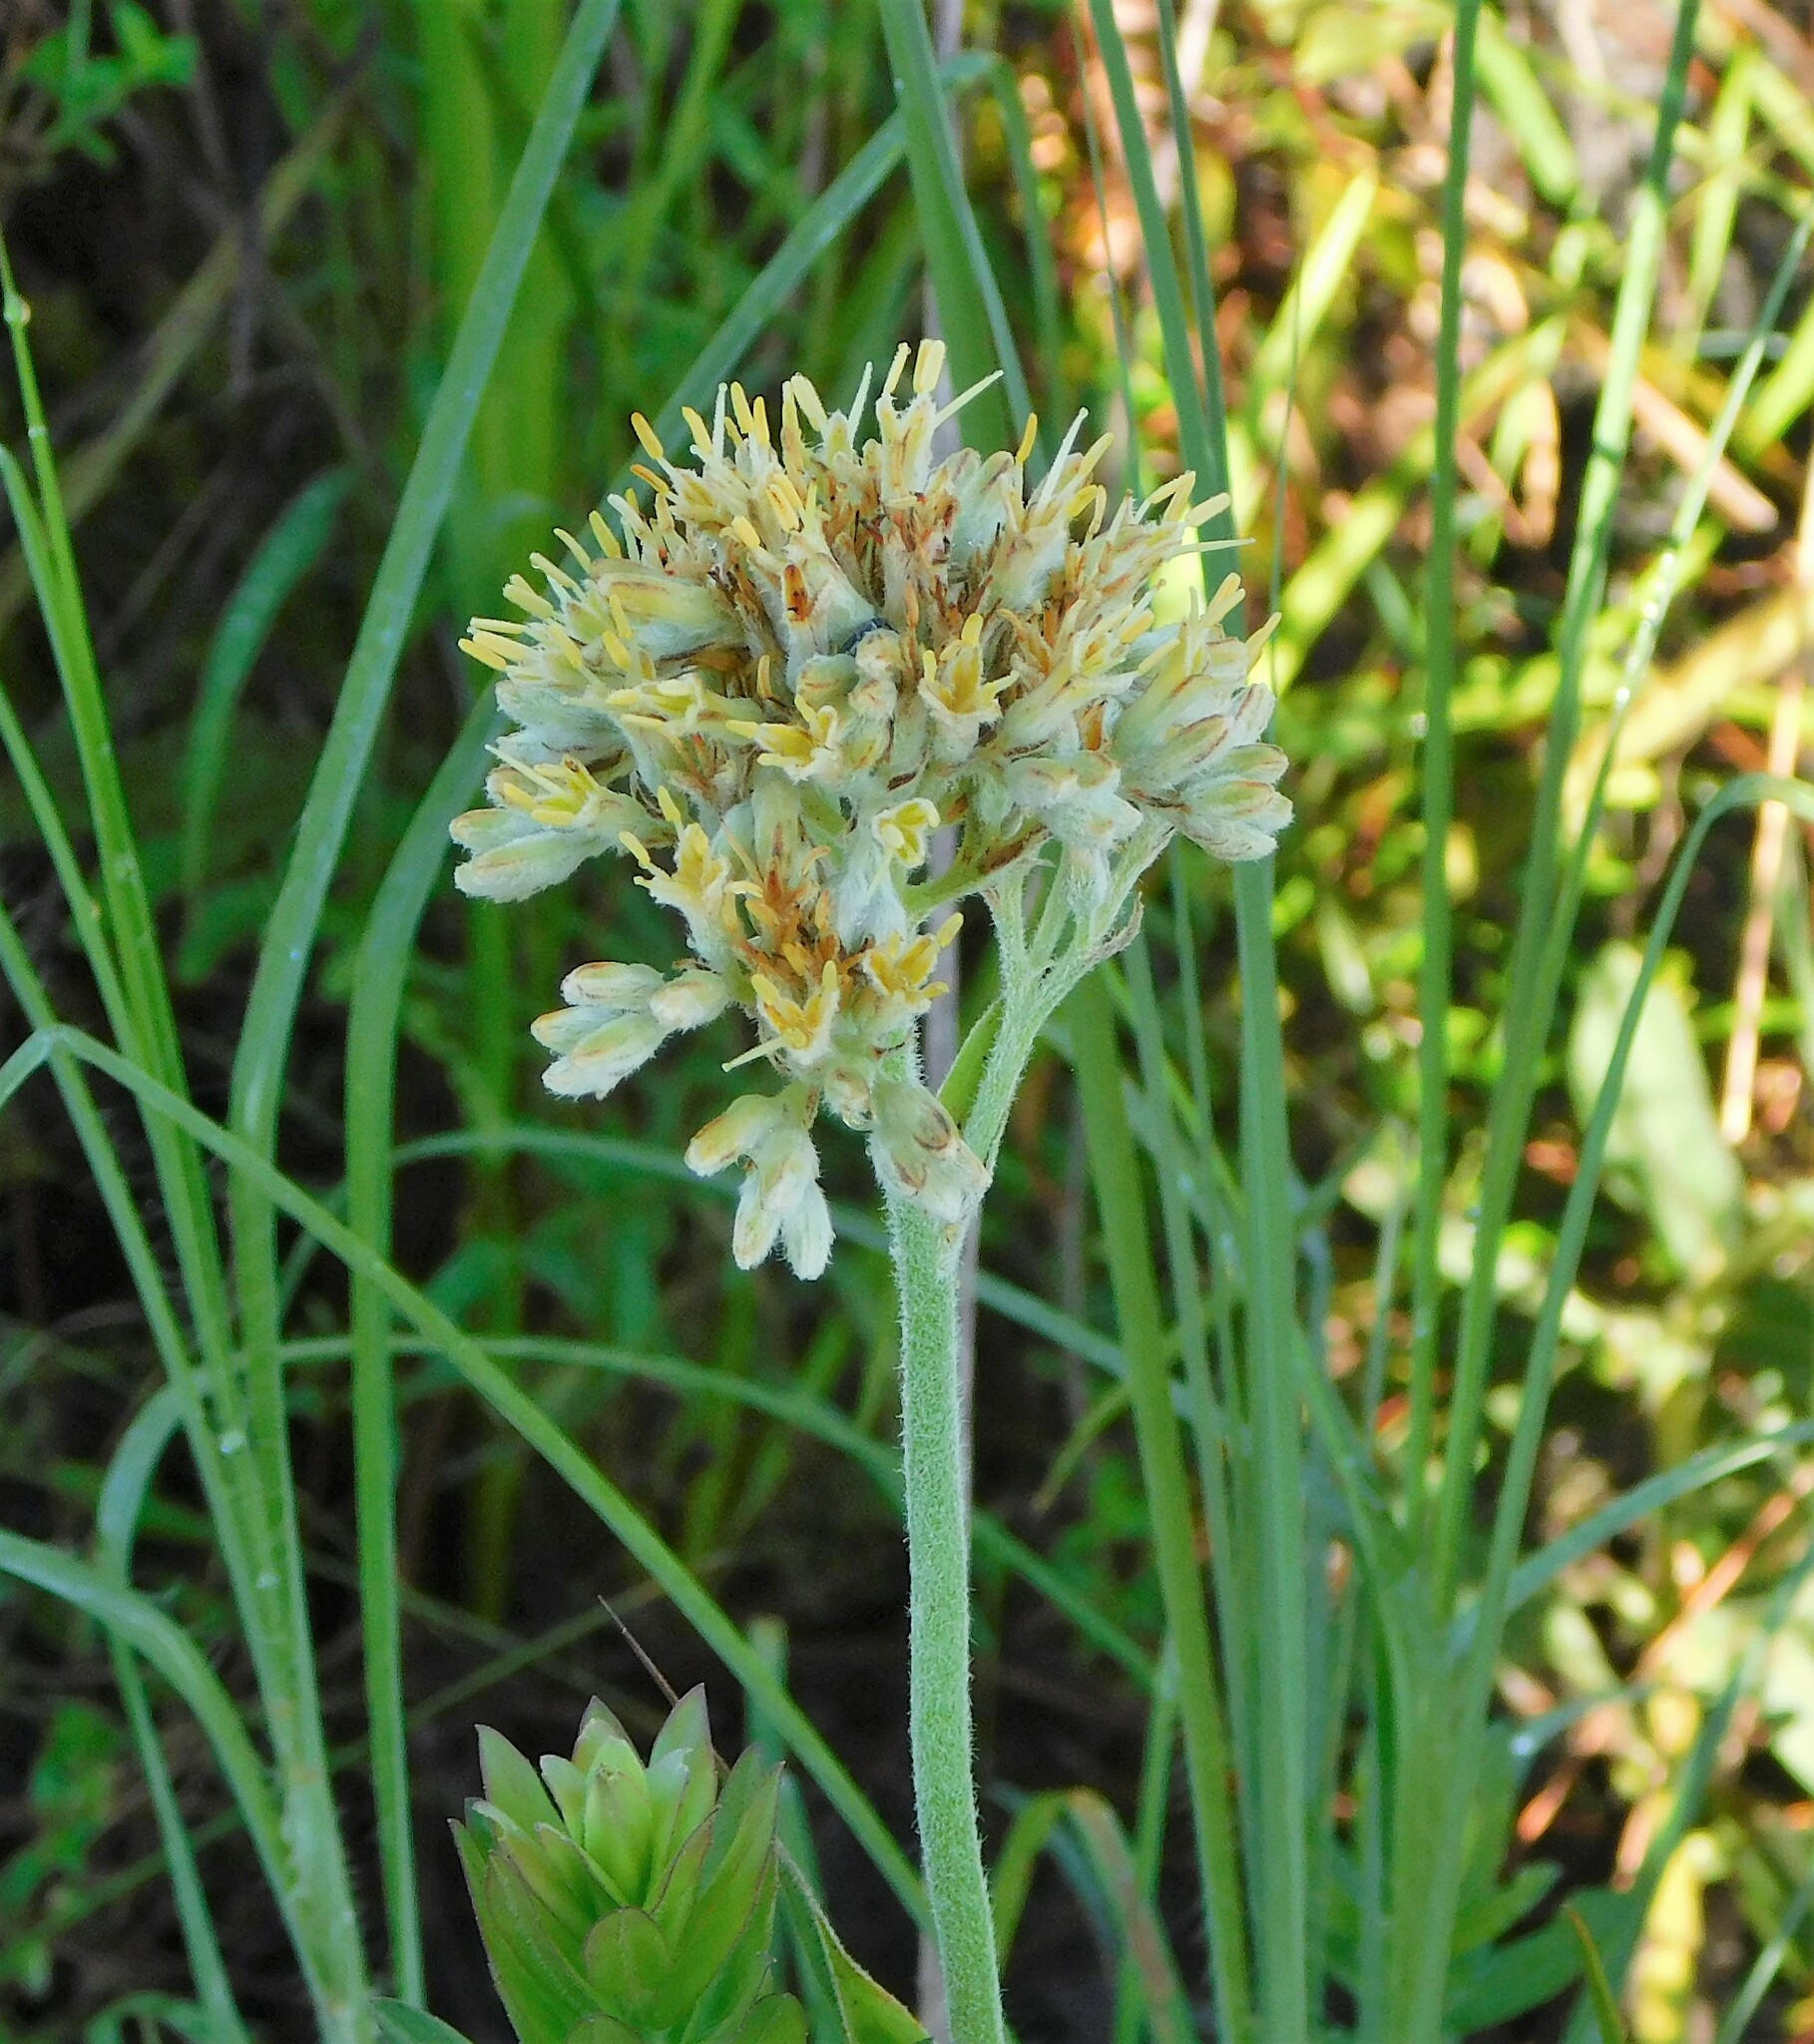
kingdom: Plantae
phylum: Tracheophyta
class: Liliopsida
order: Commelinales
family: Haemodoraceae
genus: Lachnanthes
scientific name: Lachnanthes caroliana
